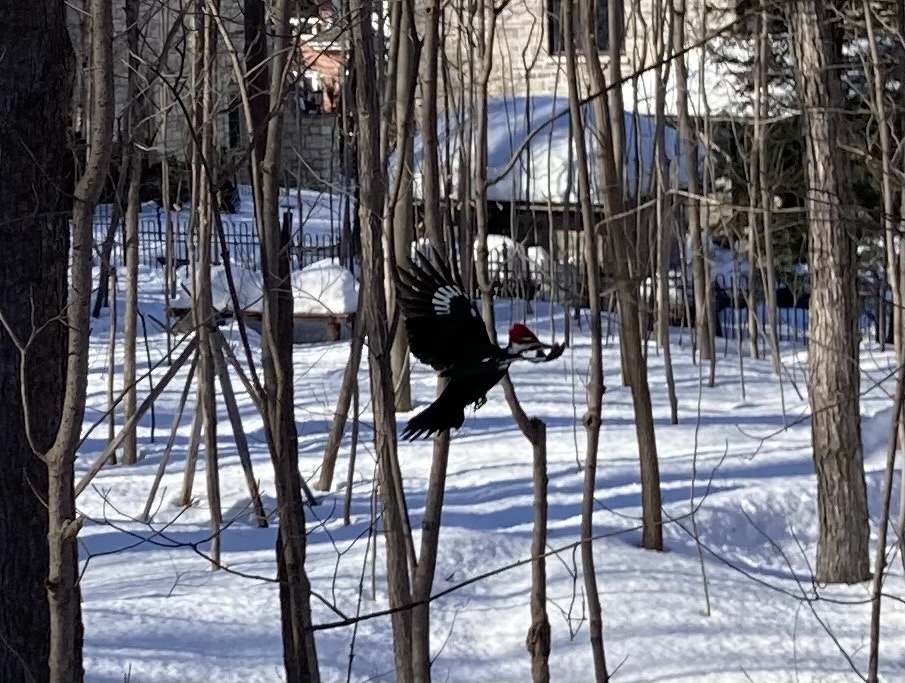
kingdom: Animalia
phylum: Chordata
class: Aves
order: Piciformes
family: Picidae
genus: Dryocopus
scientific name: Dryocopus pileatus
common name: Pileated woodpecker
